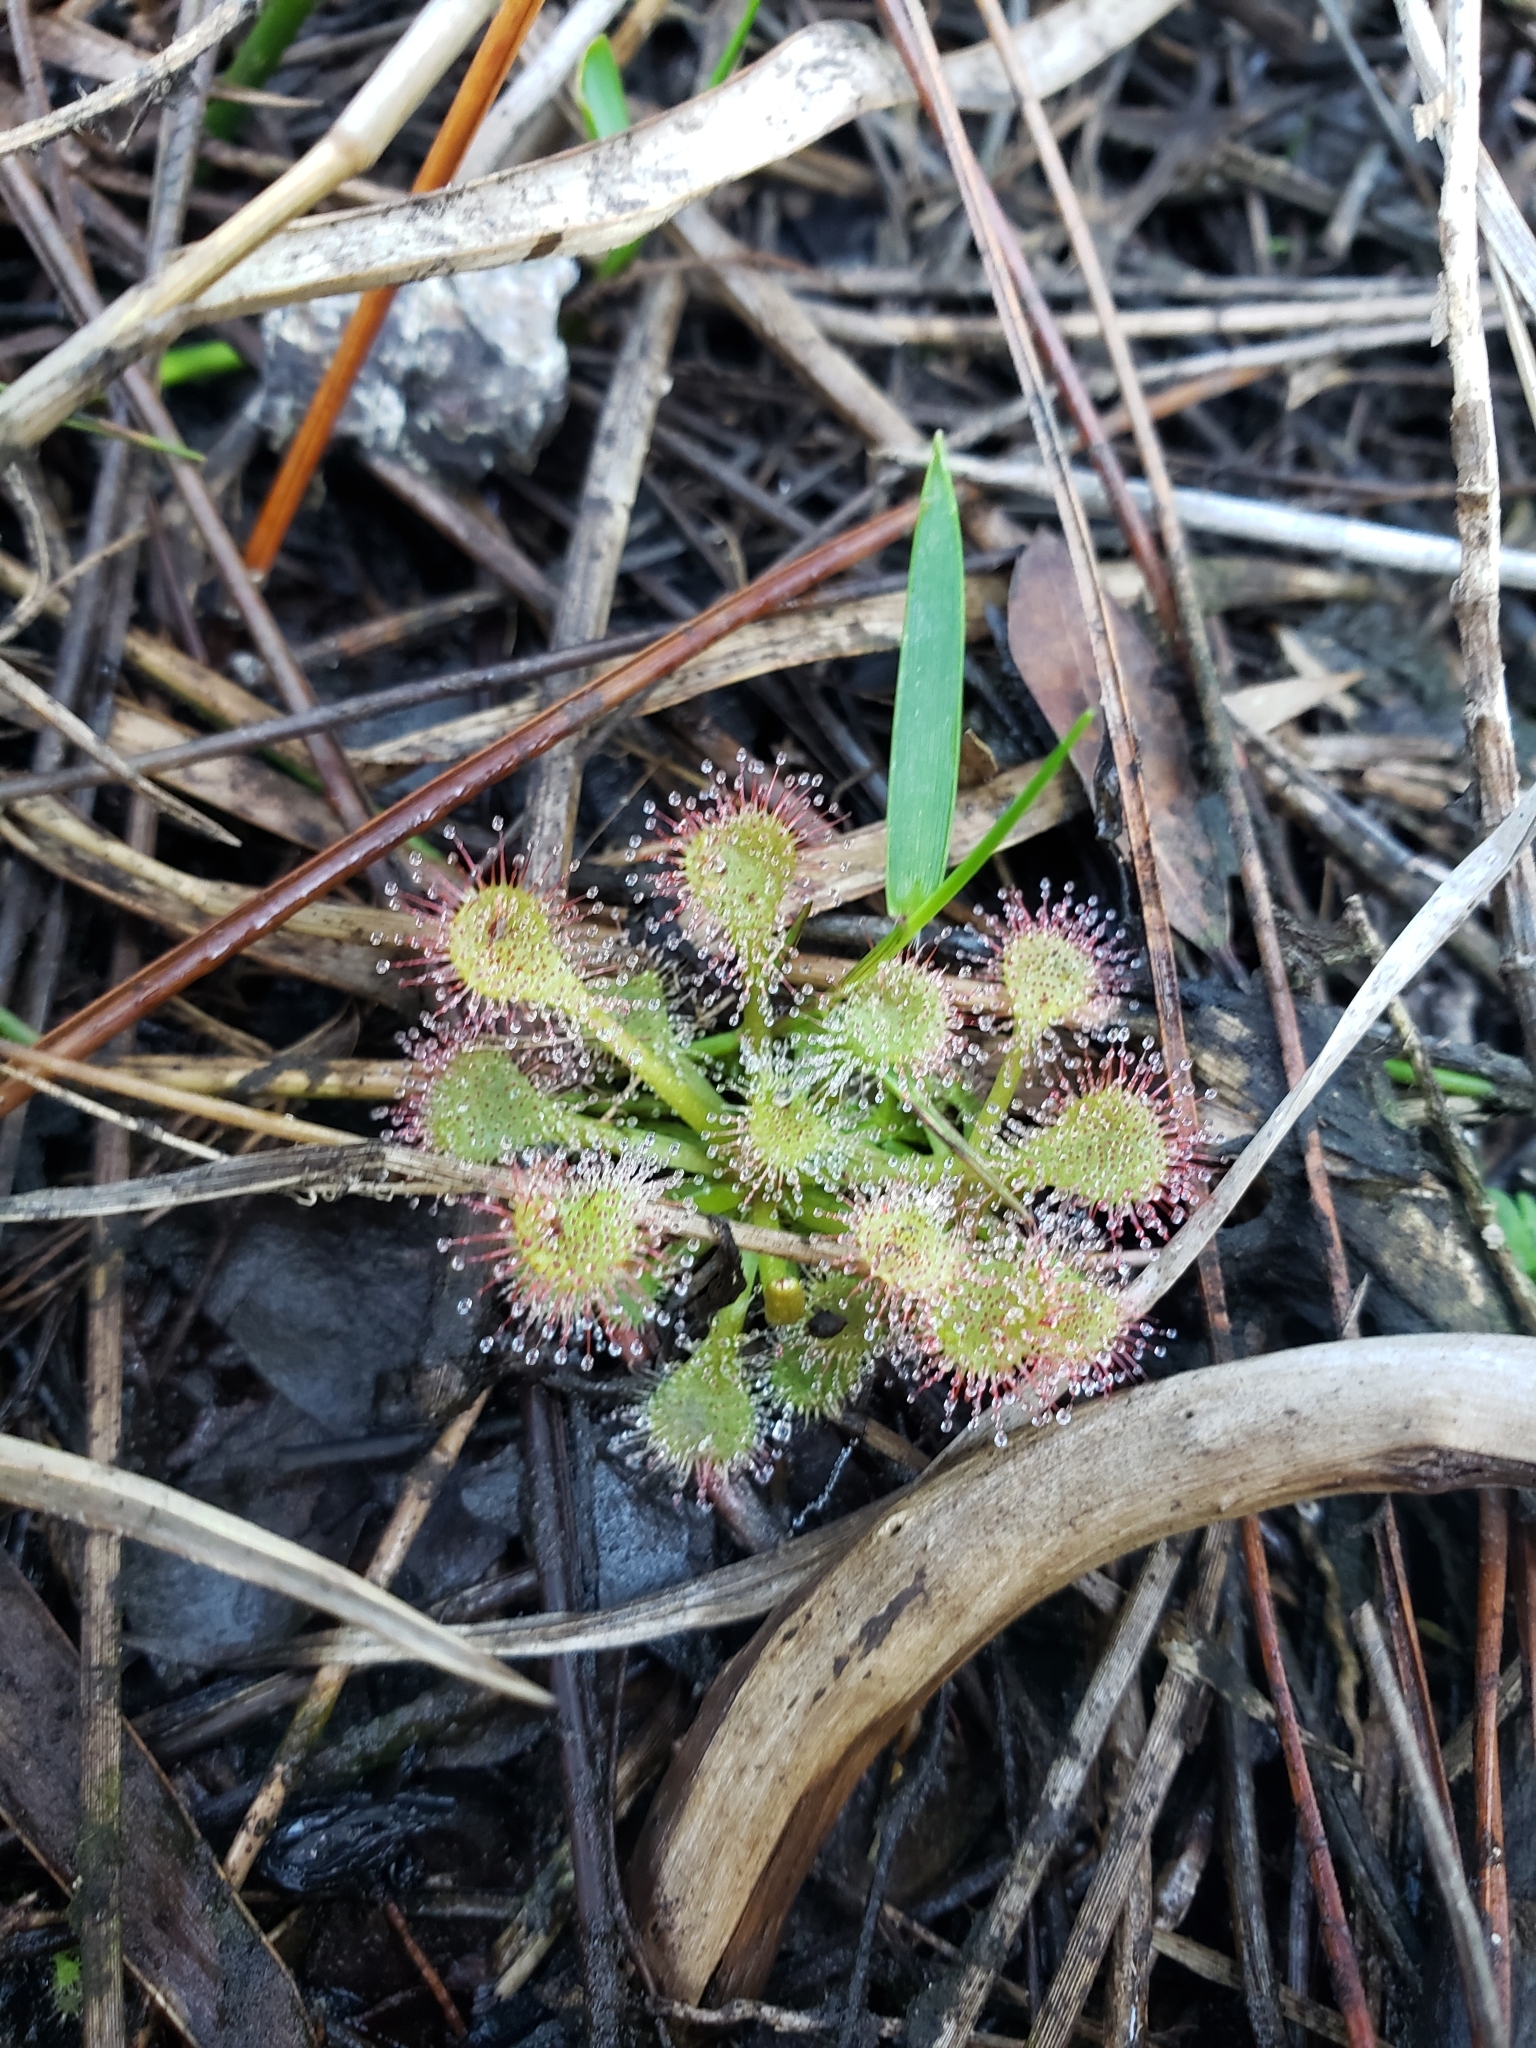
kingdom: Plantae
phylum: Tracheophyta
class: Magnoliopsida
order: Caryophyllales
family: Droseraceae
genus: Drosera
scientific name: Drosera capillaris
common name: Pink sundew
